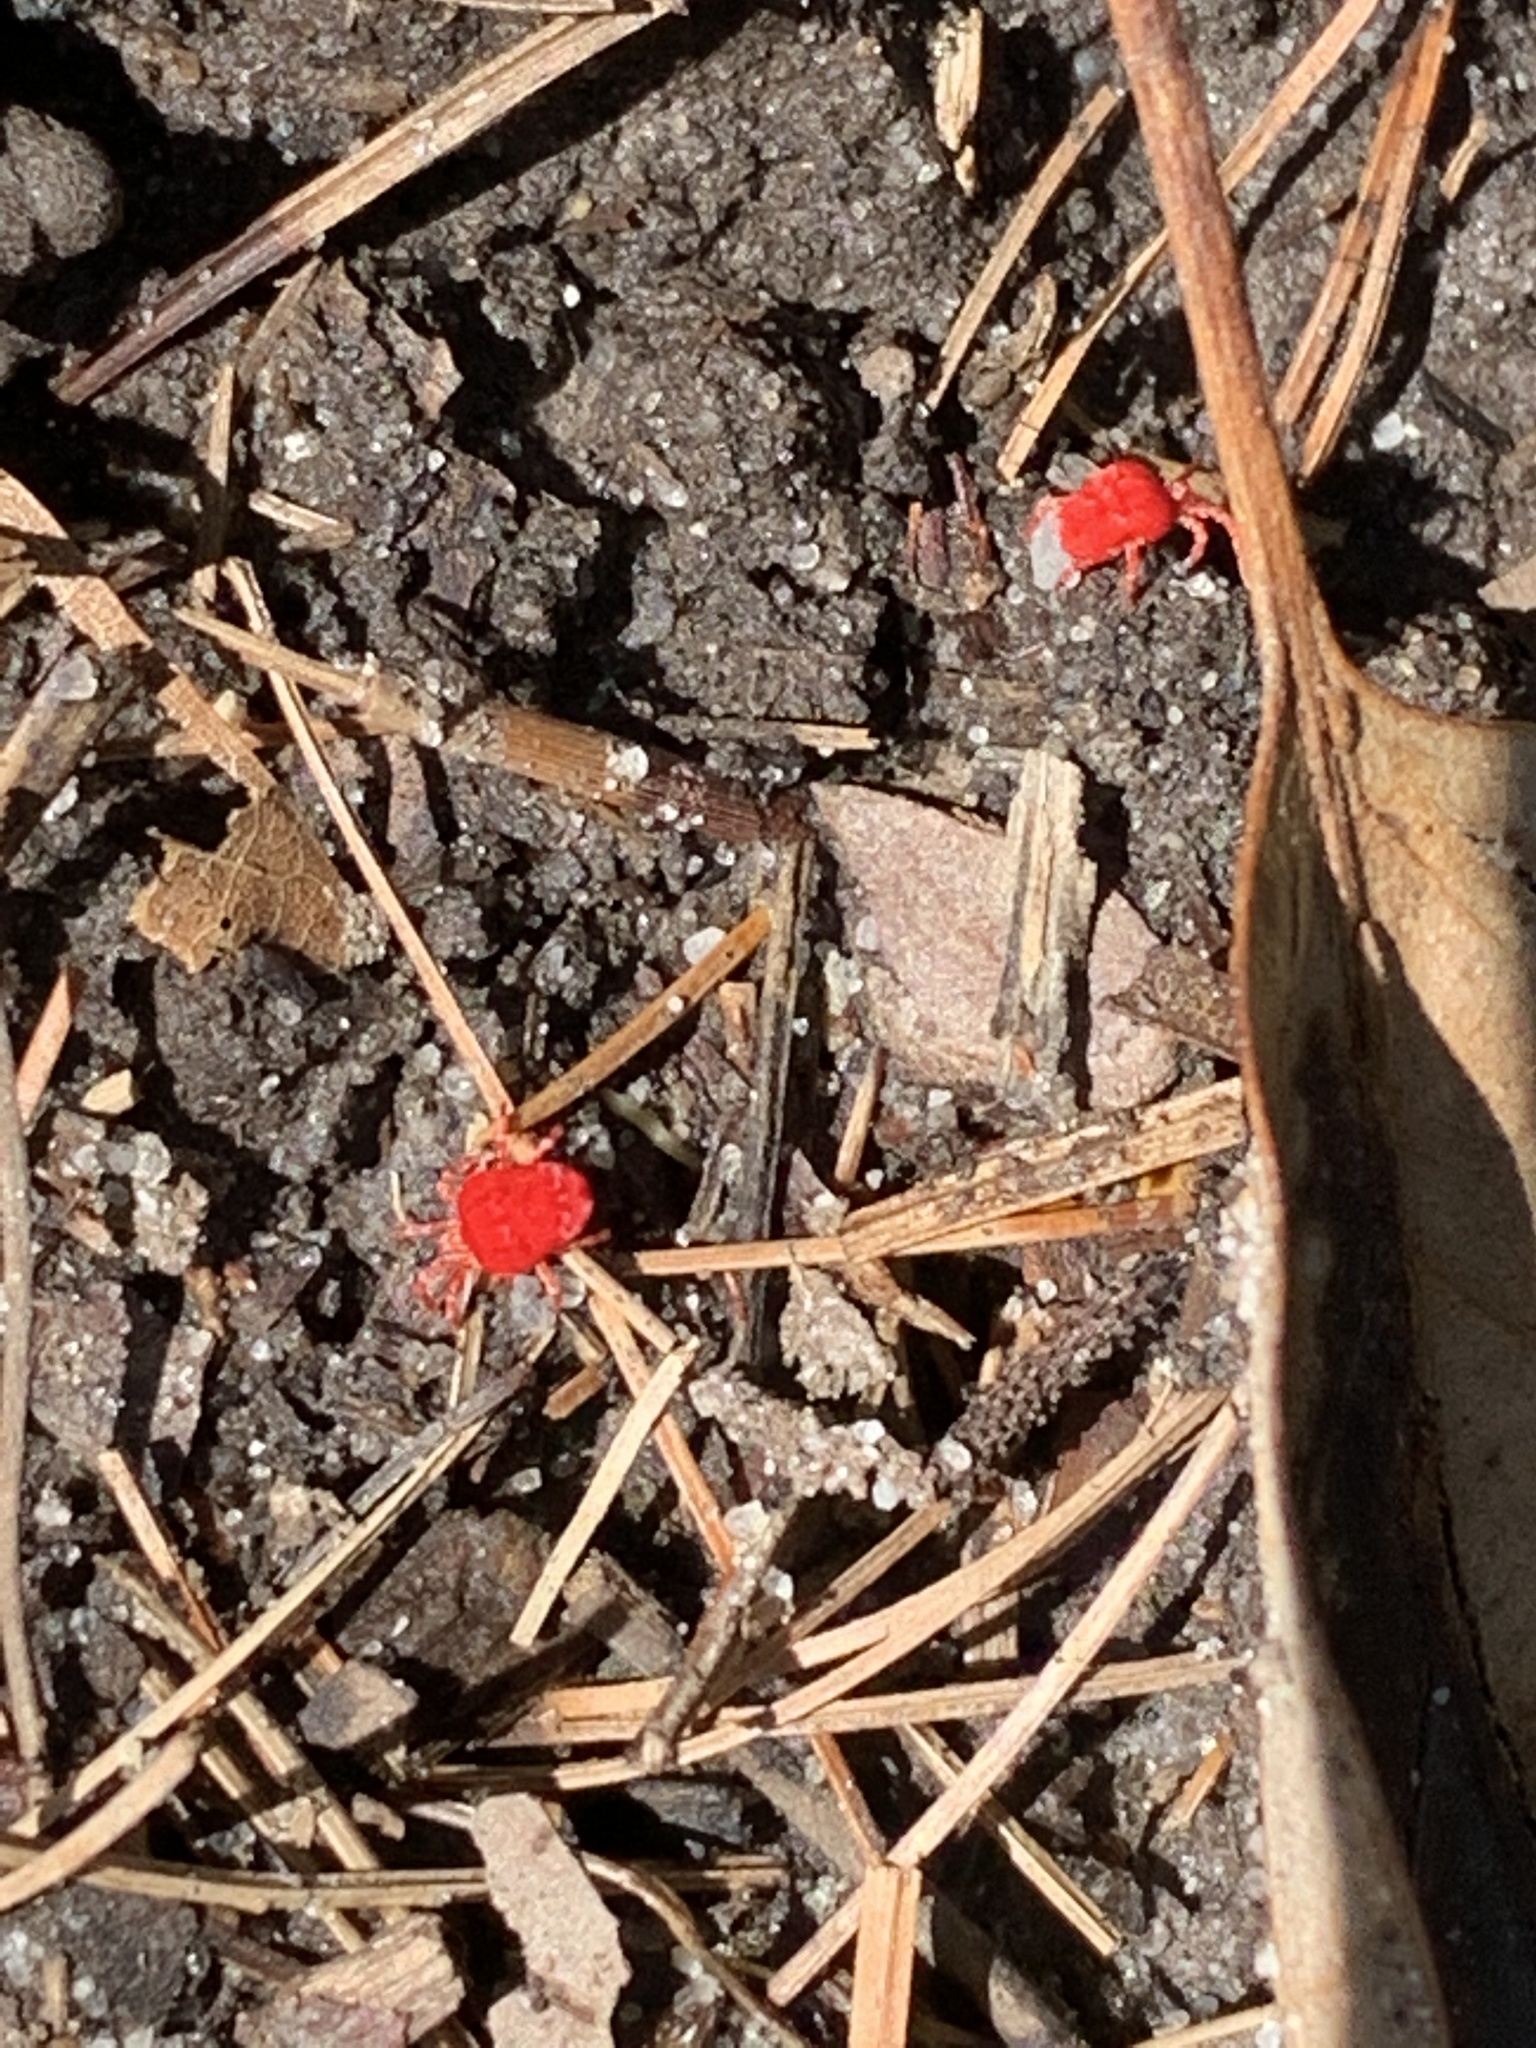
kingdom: Animalia
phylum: Arthropoda
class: Arachnida
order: Trombidiformes
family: Trombidiidae
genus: Trombidium
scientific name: Trombidium
